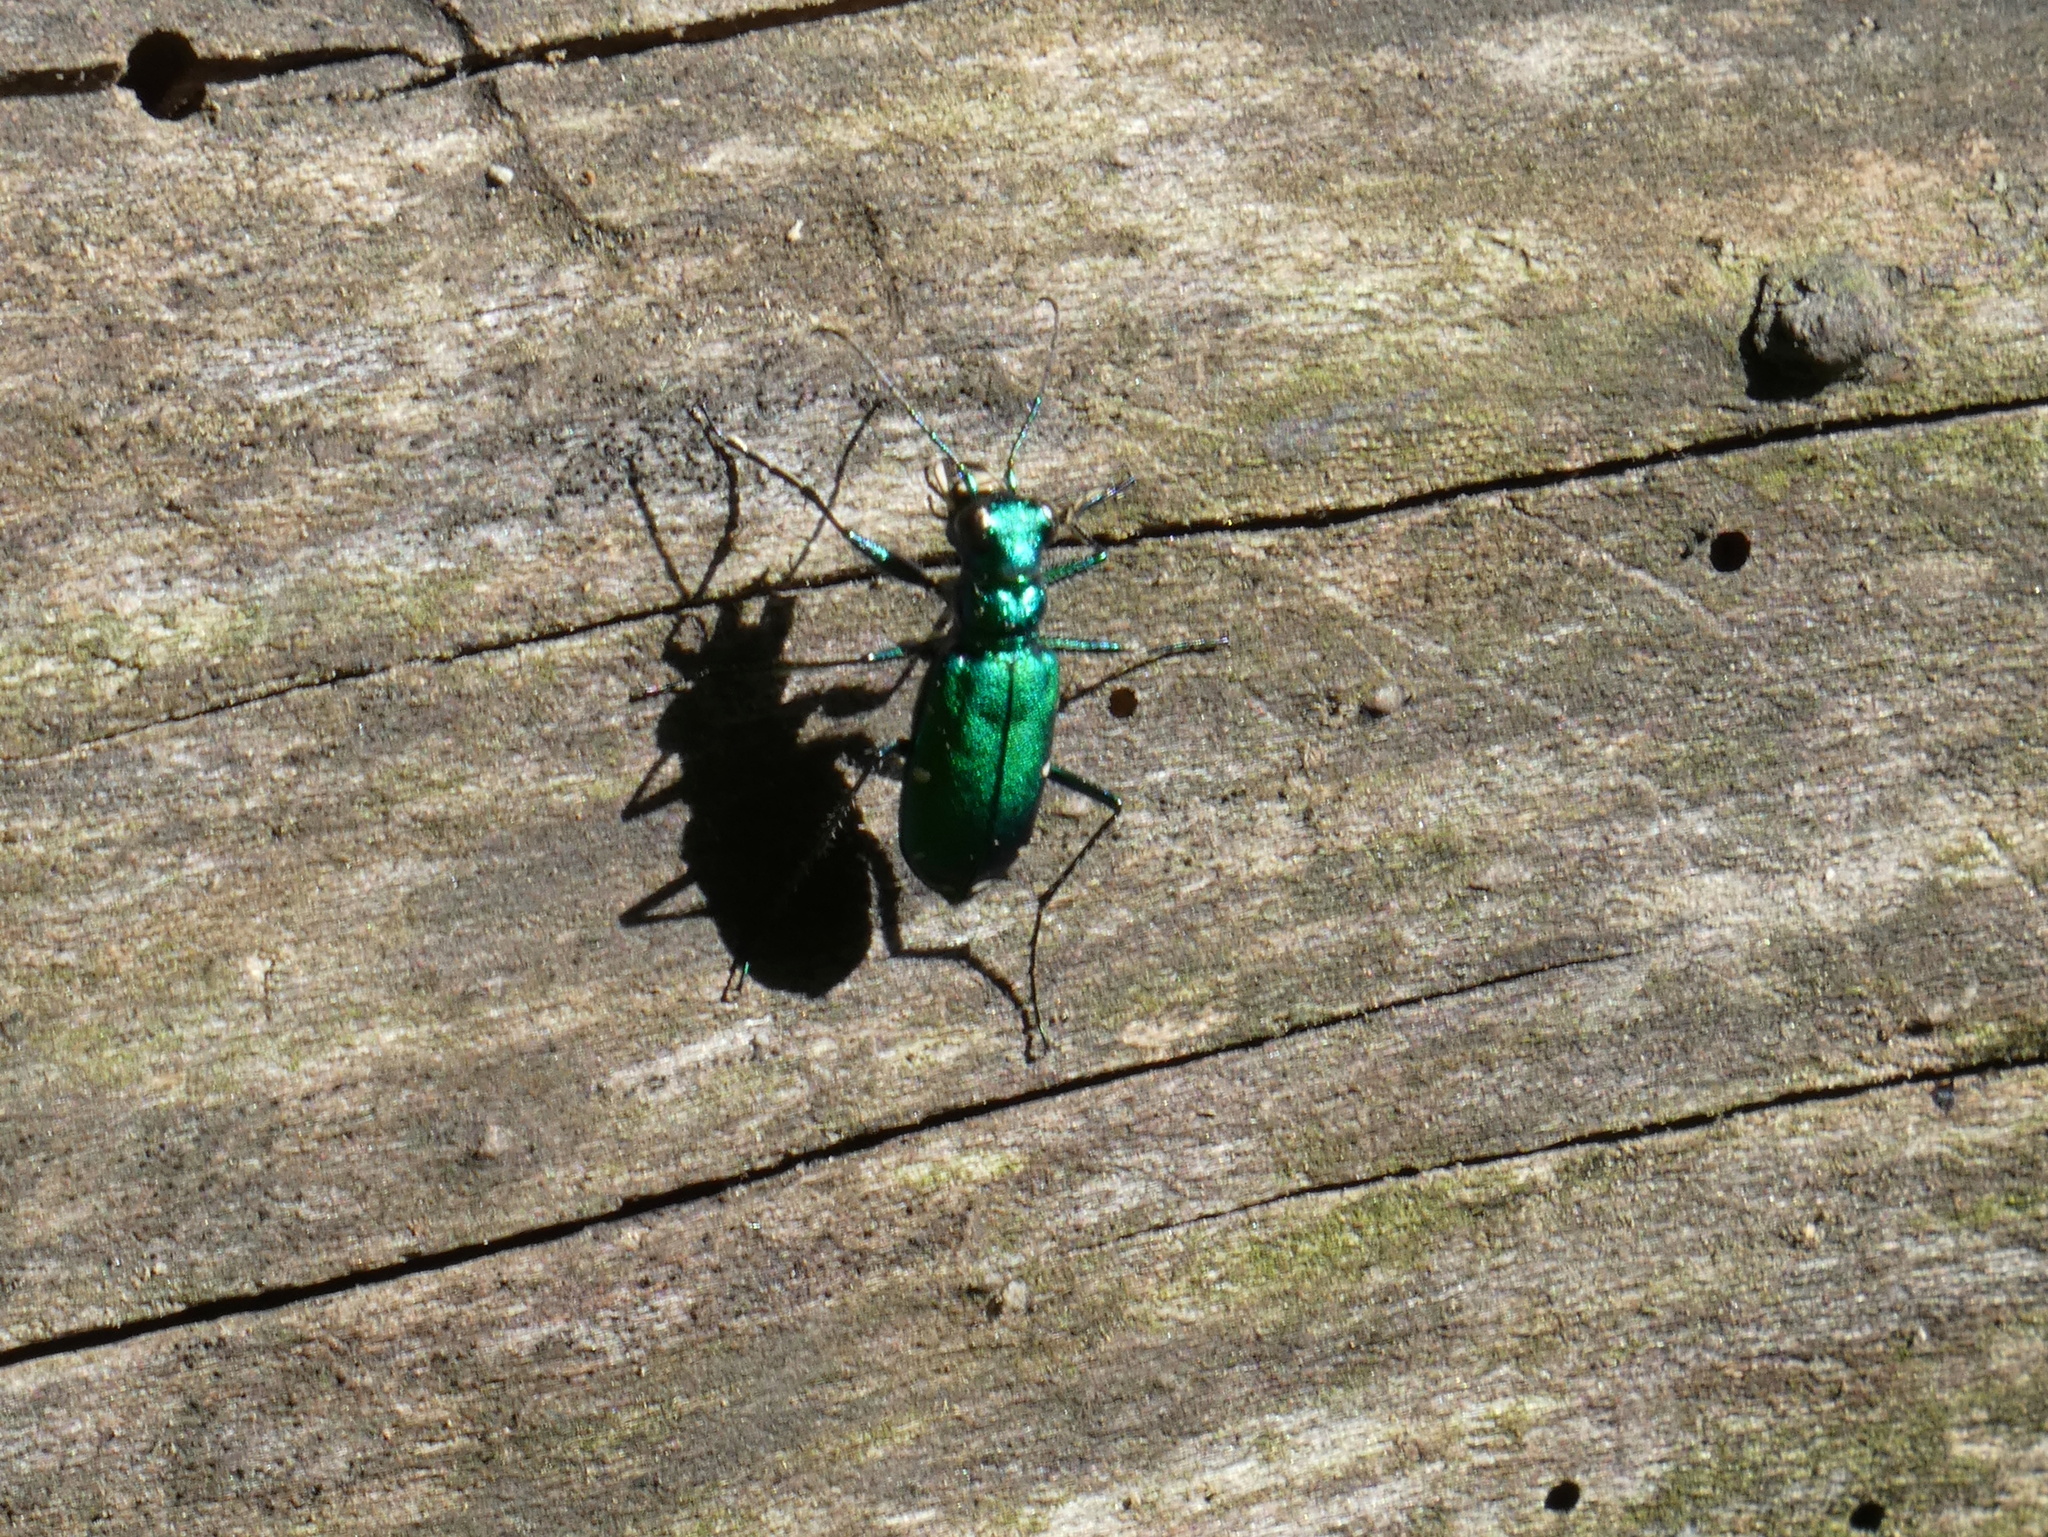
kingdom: Animalia
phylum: Arthropoda
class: Insecta
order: Coleoptera
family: Carabidae
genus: Cicindela
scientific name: Cicindela sexguttata
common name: Six-spotted tiger beetle
